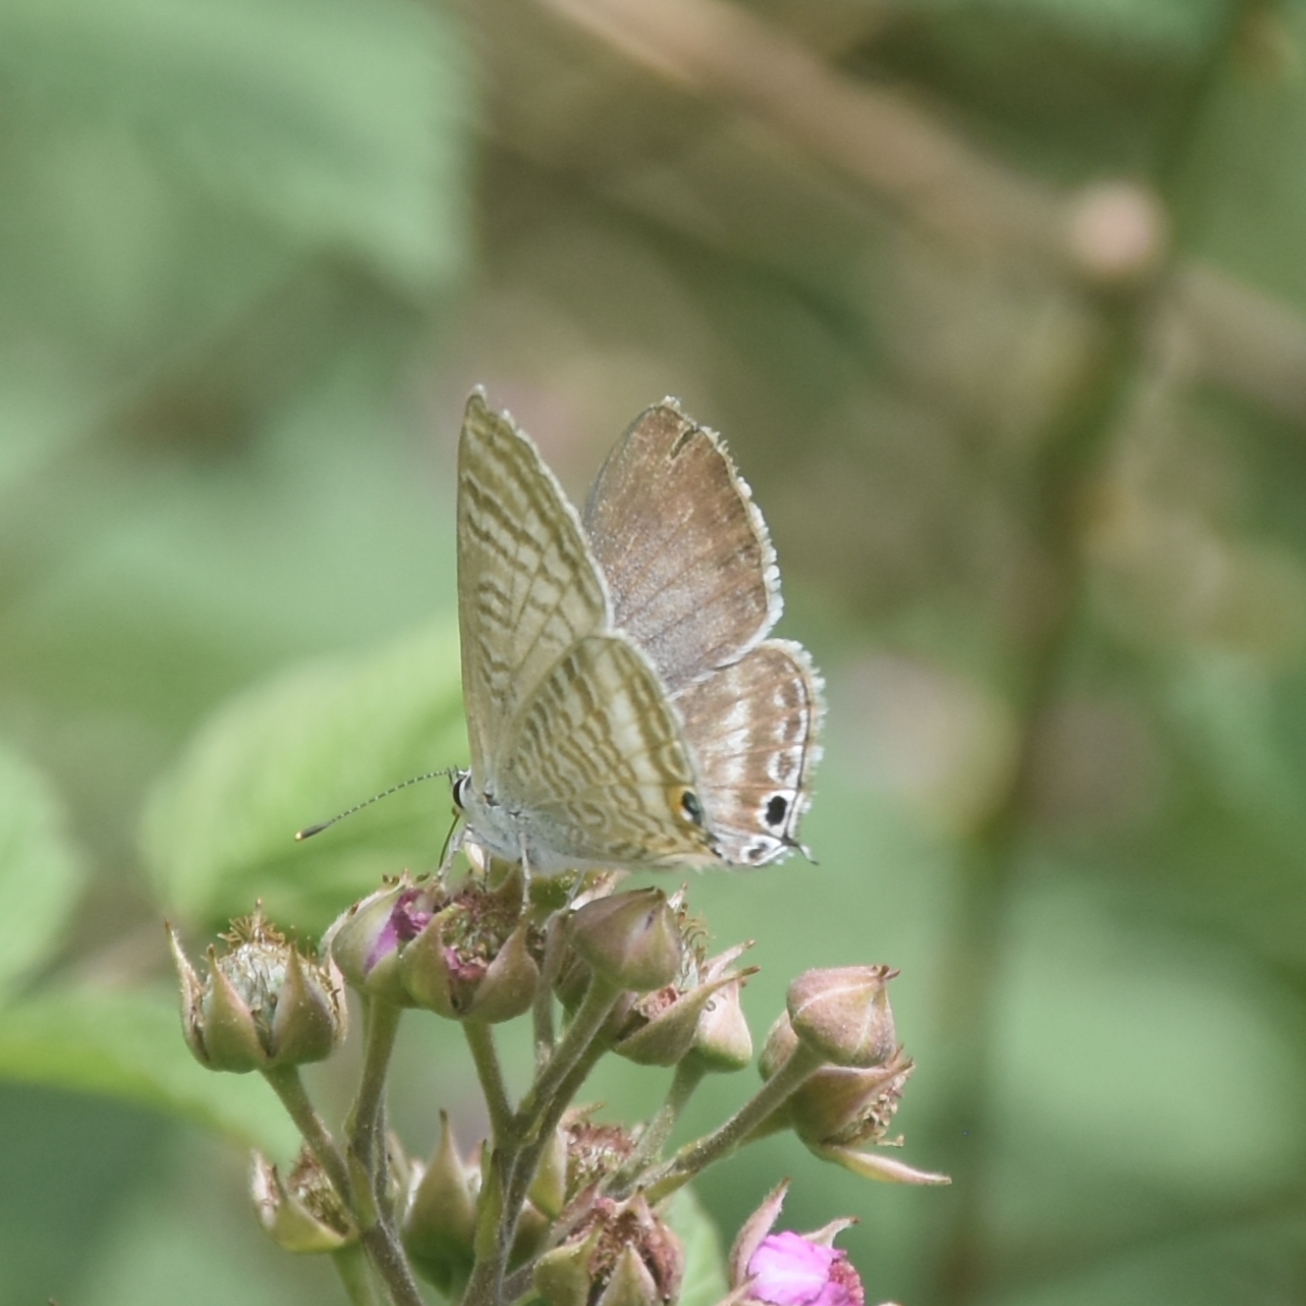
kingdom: Animalia
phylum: Arthropoda
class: Insecta
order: Lepidoptera
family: Lycaenidae
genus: Lampides
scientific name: Lampides boeticus
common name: Long-tailed blue
